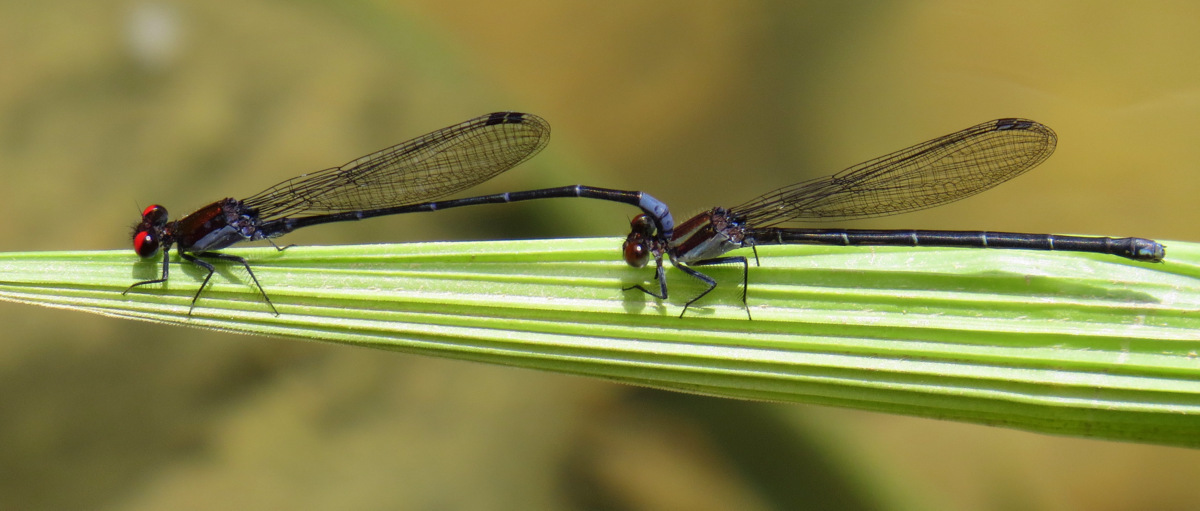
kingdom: Animalia
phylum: Arthropoda
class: Insecta
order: Odonata
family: Coenagrionidae
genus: Argia
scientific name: Argia orichalcea
